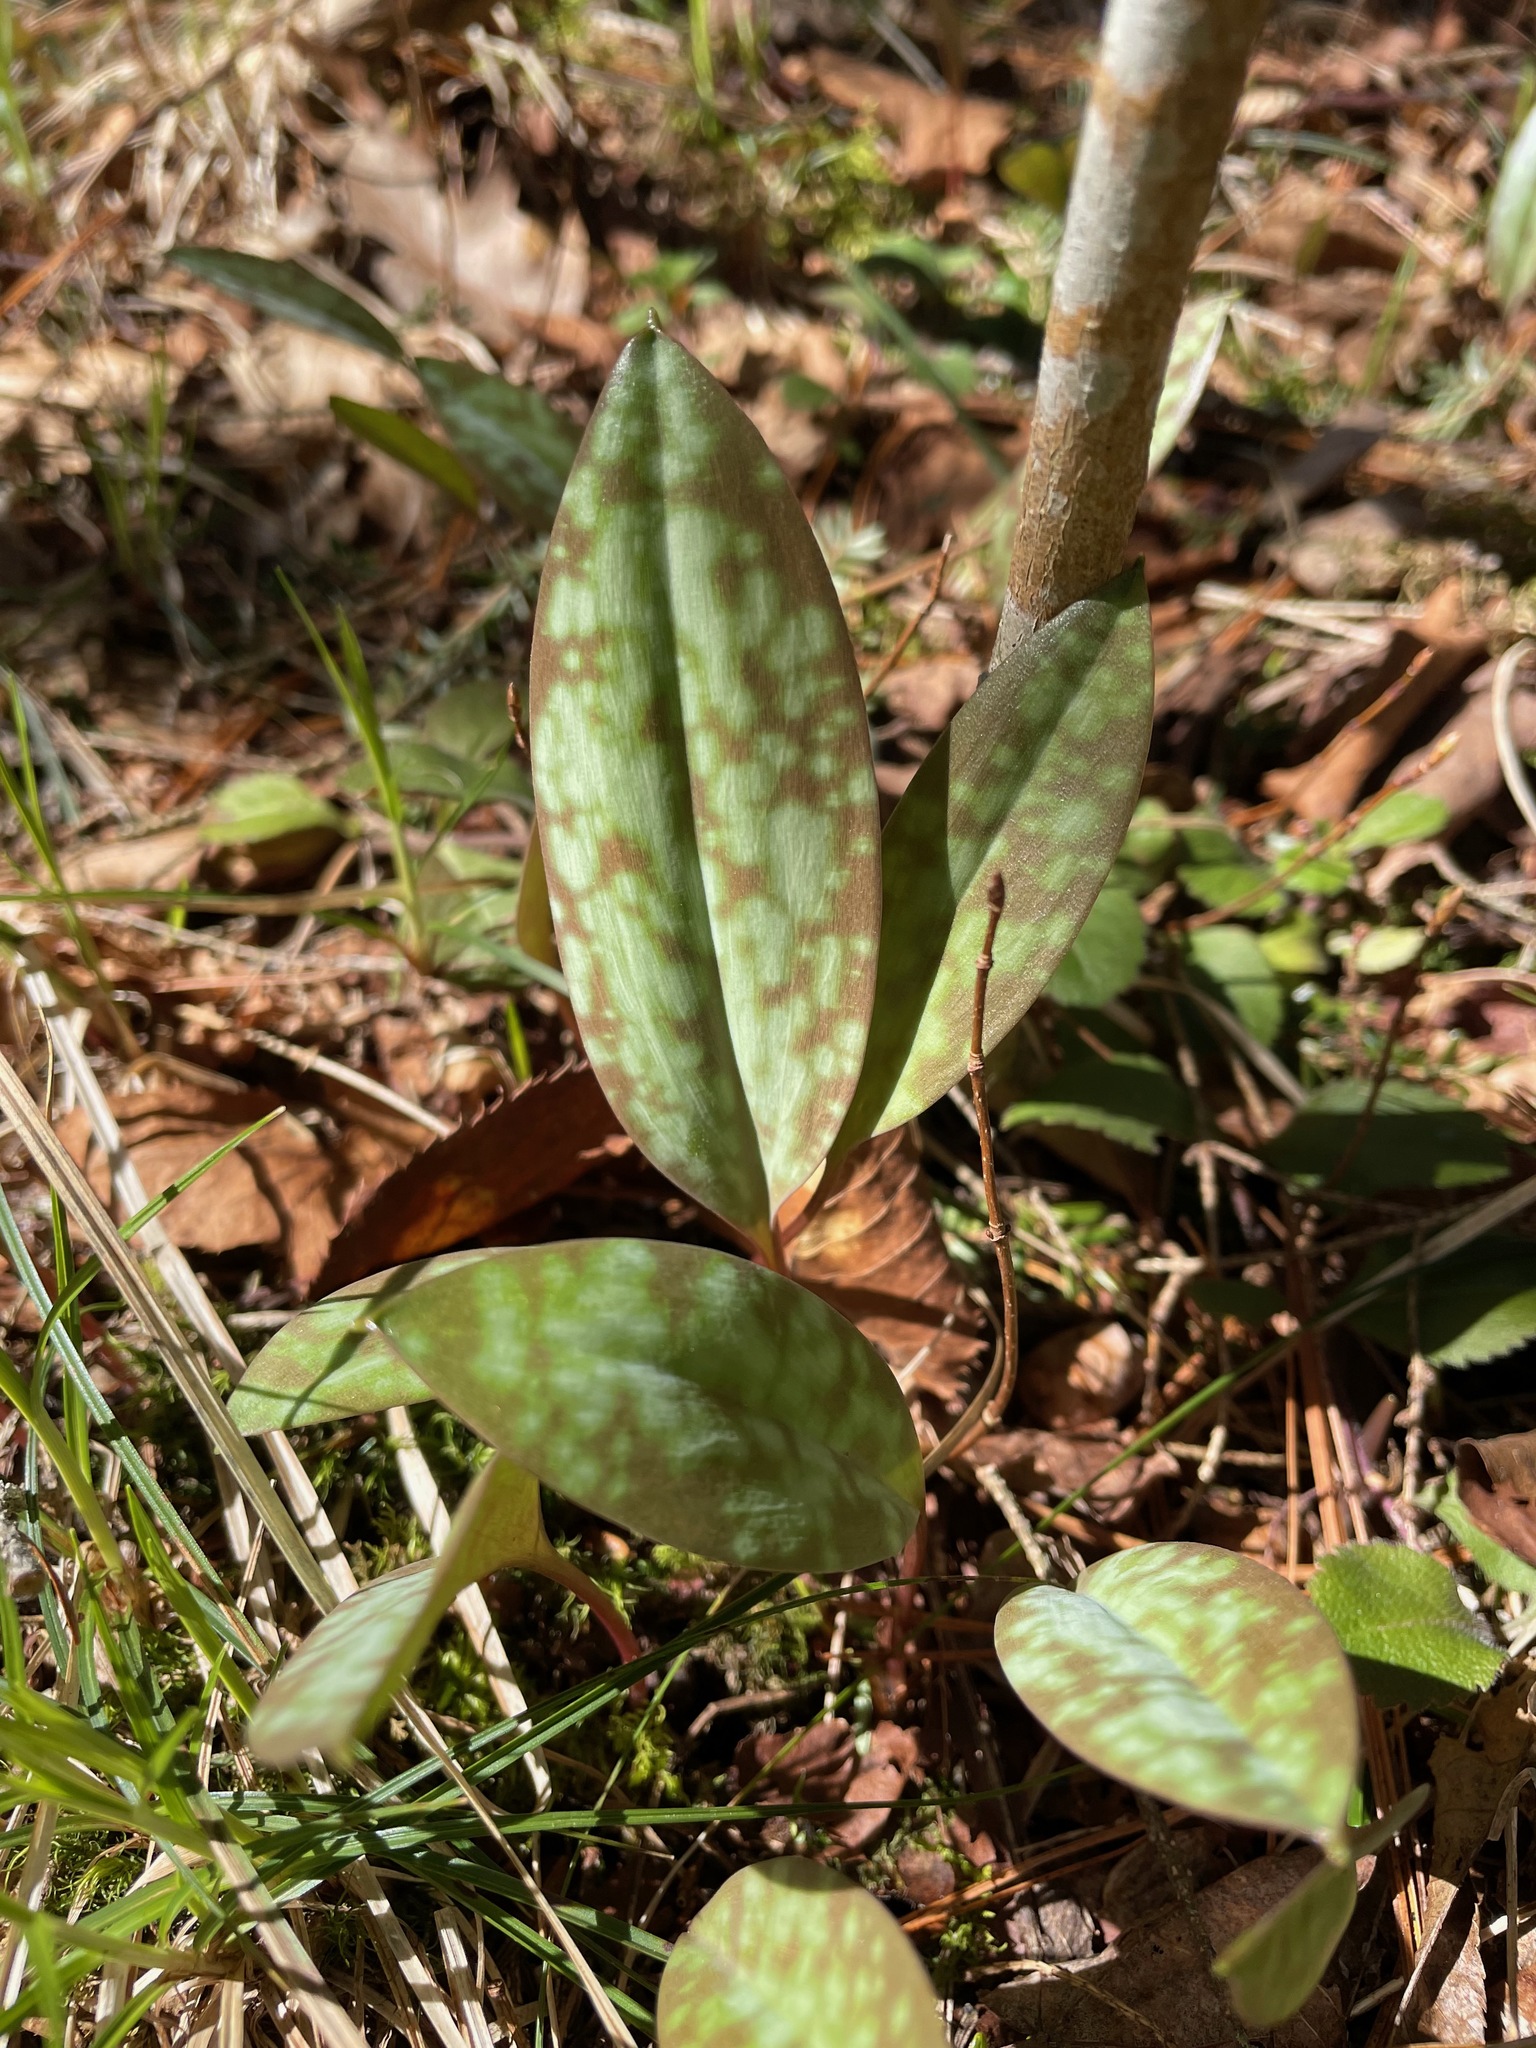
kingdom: Plantae
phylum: Tracheophyta
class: Liliopsida
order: Liliales
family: Liliaceae
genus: Erythronium
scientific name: Erythronium americanum
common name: Yellow adder's-tongue
